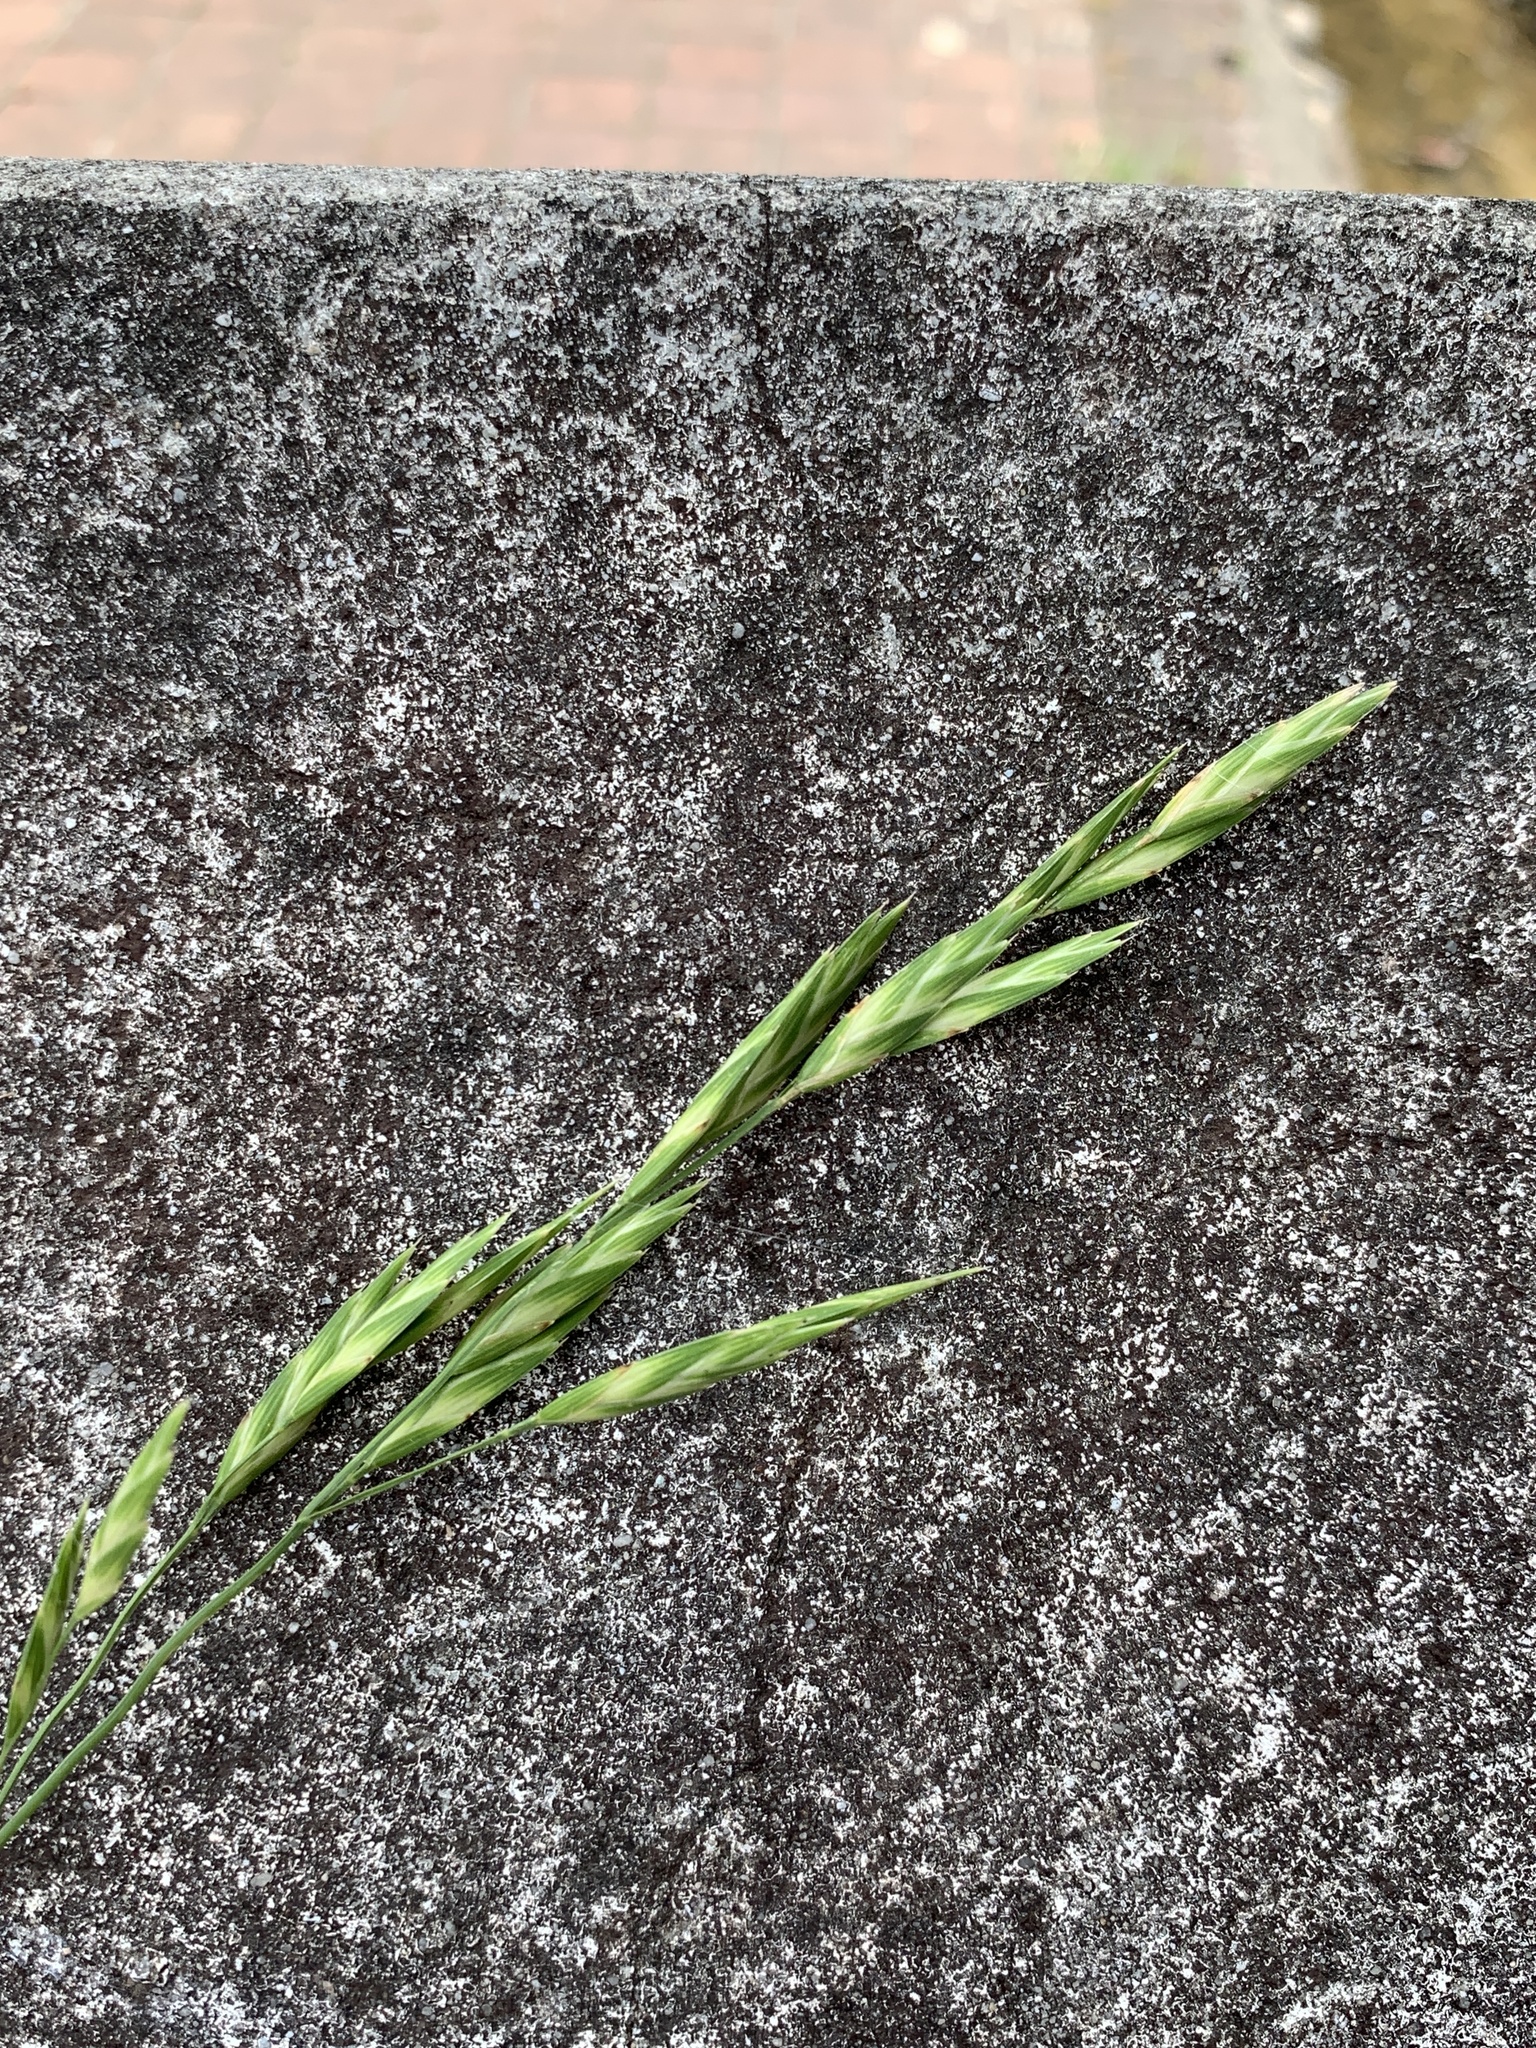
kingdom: Plantae
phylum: Tracheophyta
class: Liliopsida
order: Poales
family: Poaceae
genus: Bromus
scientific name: Bromus catharticus
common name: Rescuegrass
